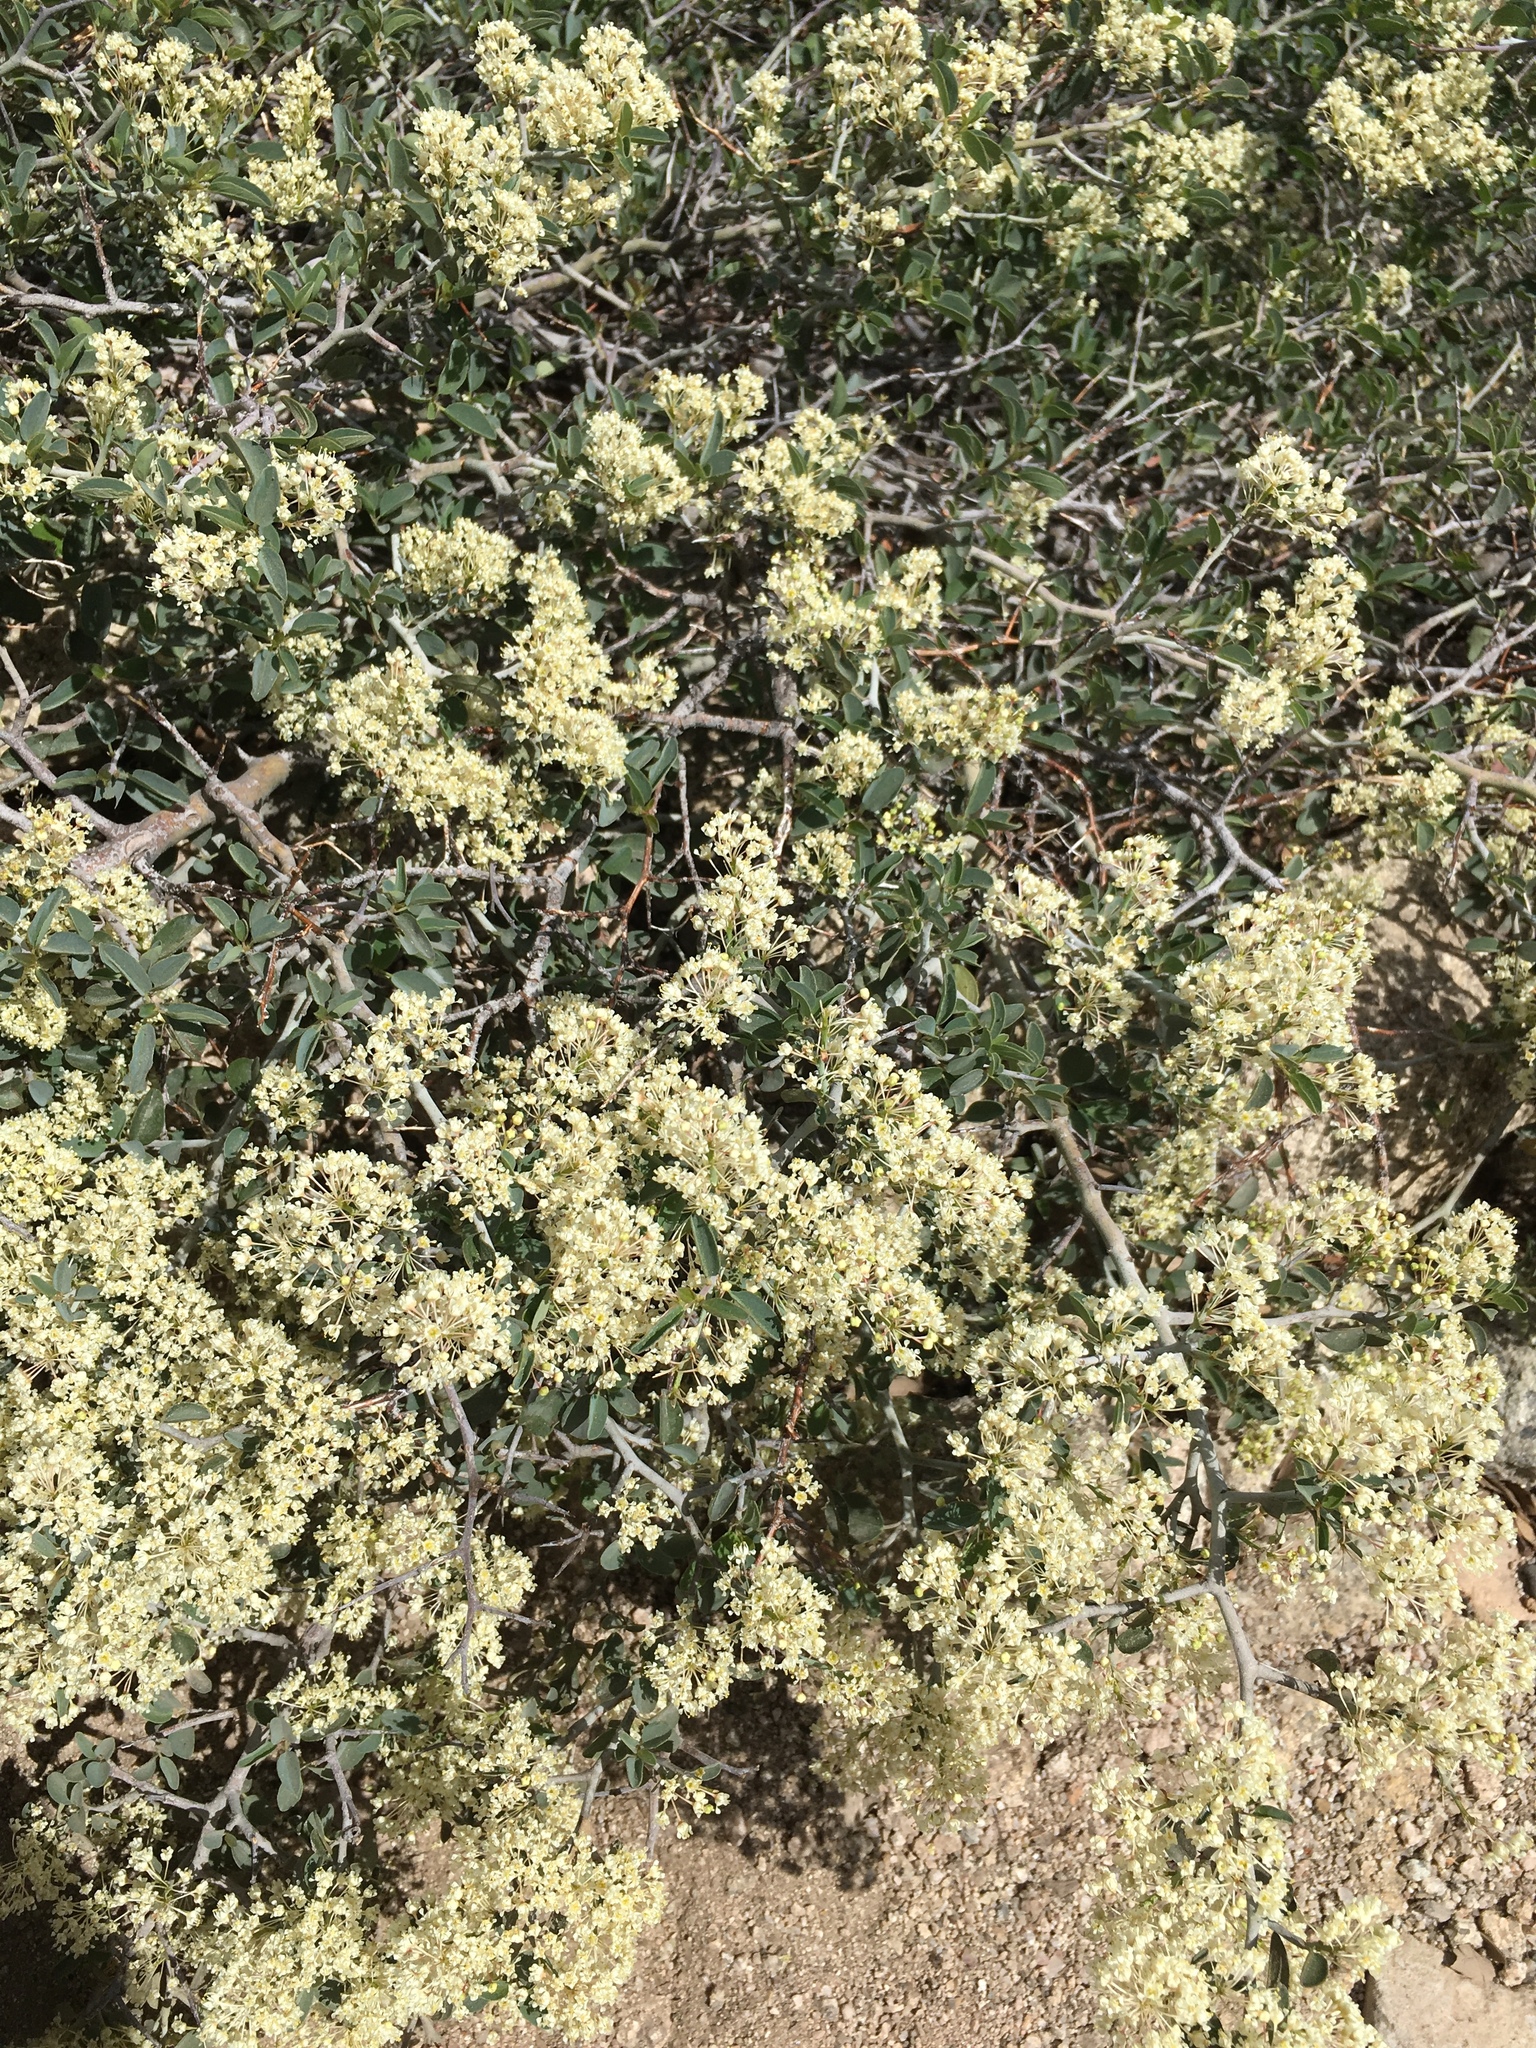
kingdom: Plantae
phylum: Tracheophyta
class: Magnoliopsida
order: Rosales
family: Rhamnaceae
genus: Ceanothus
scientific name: Ceanothus cordulatus
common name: Mountain whitethorn
